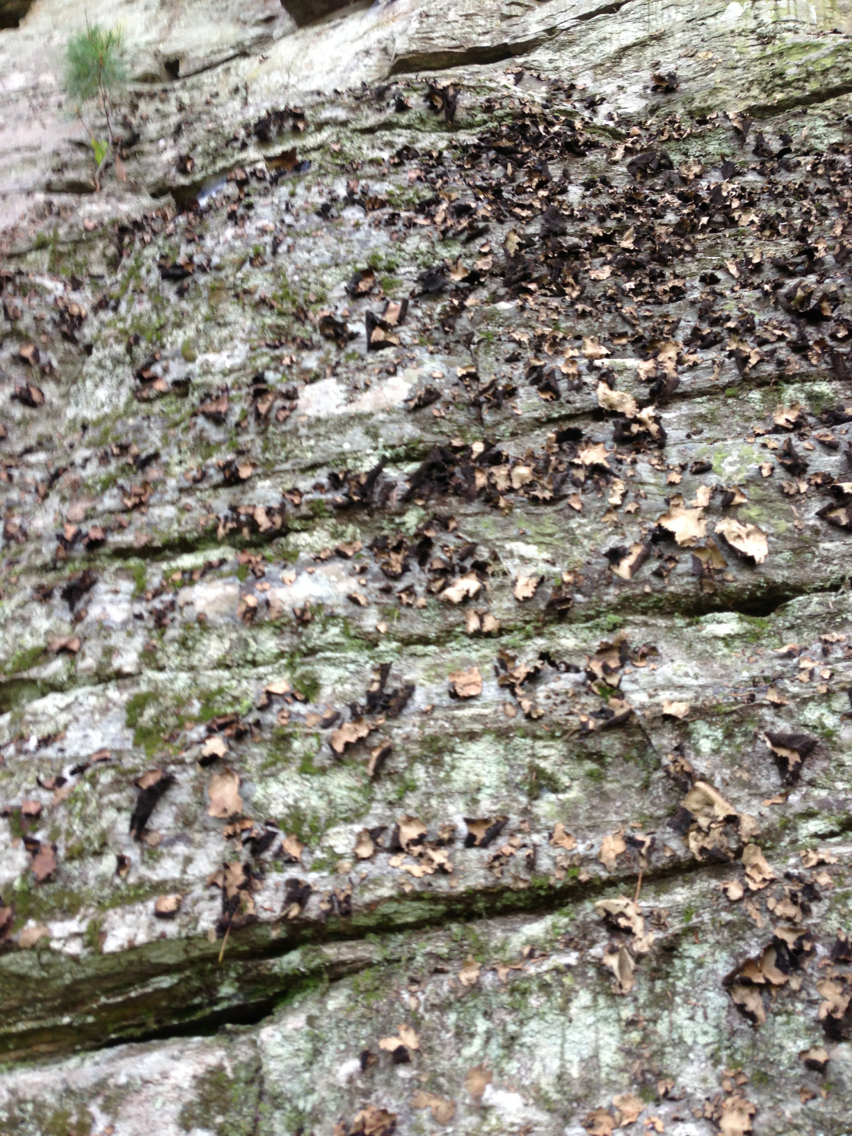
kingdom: Fungi
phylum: Ascomycota
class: Lecanoromycetes
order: Umbilicariales
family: Umbilicariaceae
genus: Umbilicaria
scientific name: Umbilicaria mammulata
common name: Smooth rock tripe
